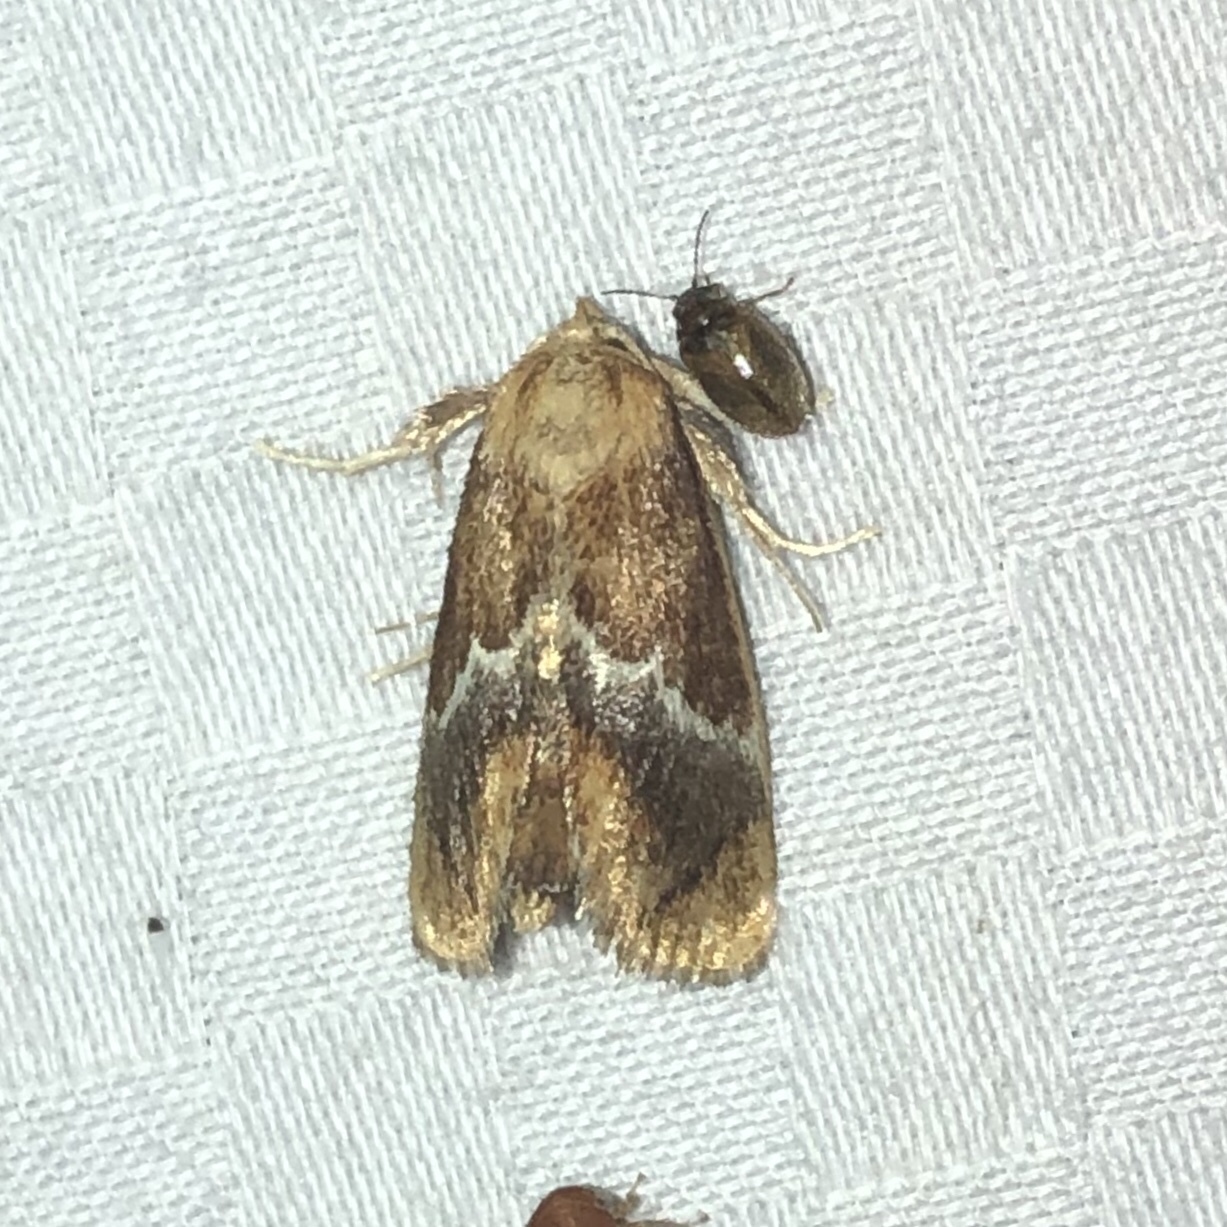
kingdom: Animalia
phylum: Arthropoda
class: Insecta
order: Lepidoptera
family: Limacodidae
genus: Lithacodes
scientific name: Lithacodes fasciola
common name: Yellow-shouldered slug moth
